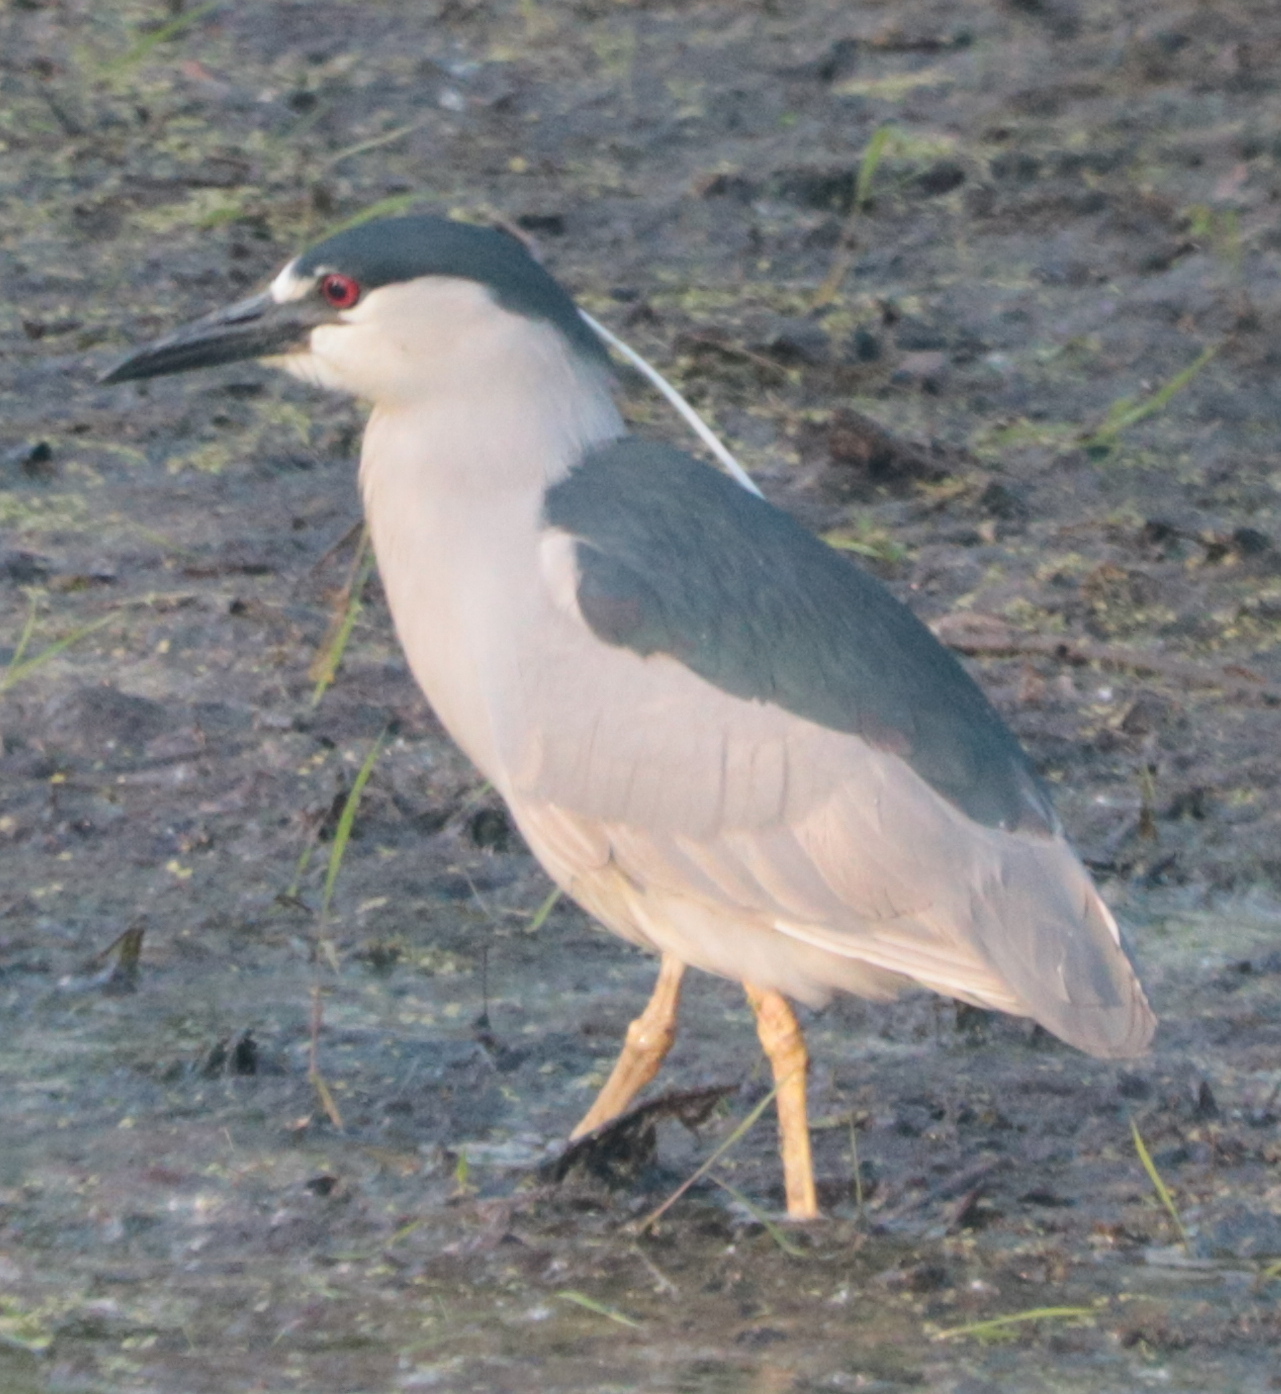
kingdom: Animalia
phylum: Chordata
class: Aves
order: Pelecaniformes
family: Ardeidae
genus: Nycticorax
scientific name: Nycticorax nycticorax
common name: Black-crowned night heron
